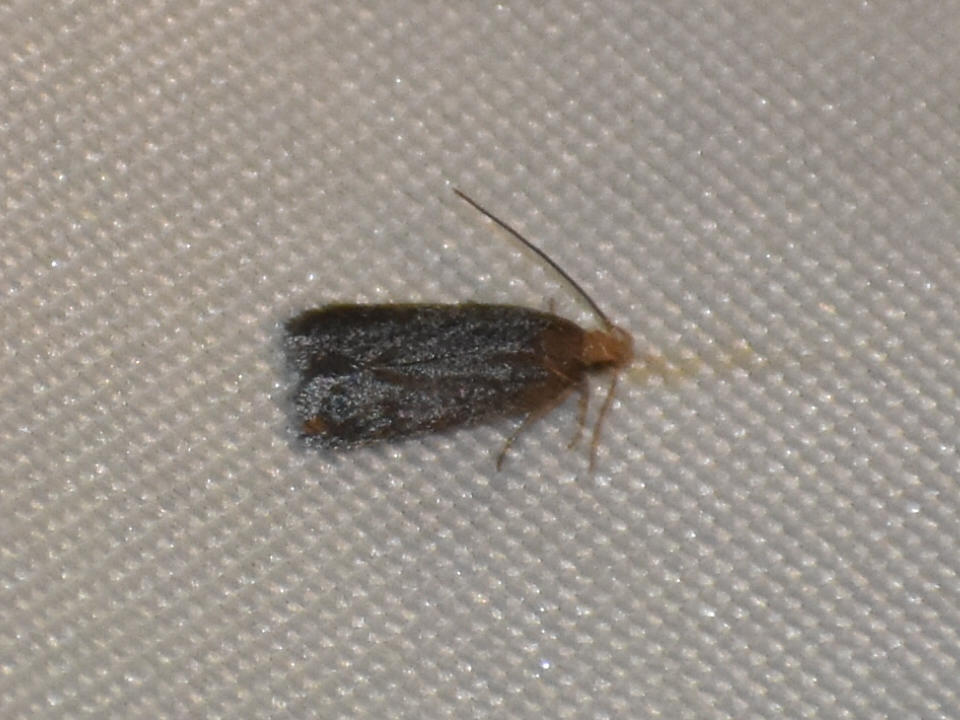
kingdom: Animalia
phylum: Arthropoda
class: Insecta
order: Lepidoptera
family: Autostichidae
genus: Glyphidocera
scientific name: Glyphidocera lithodoxa
